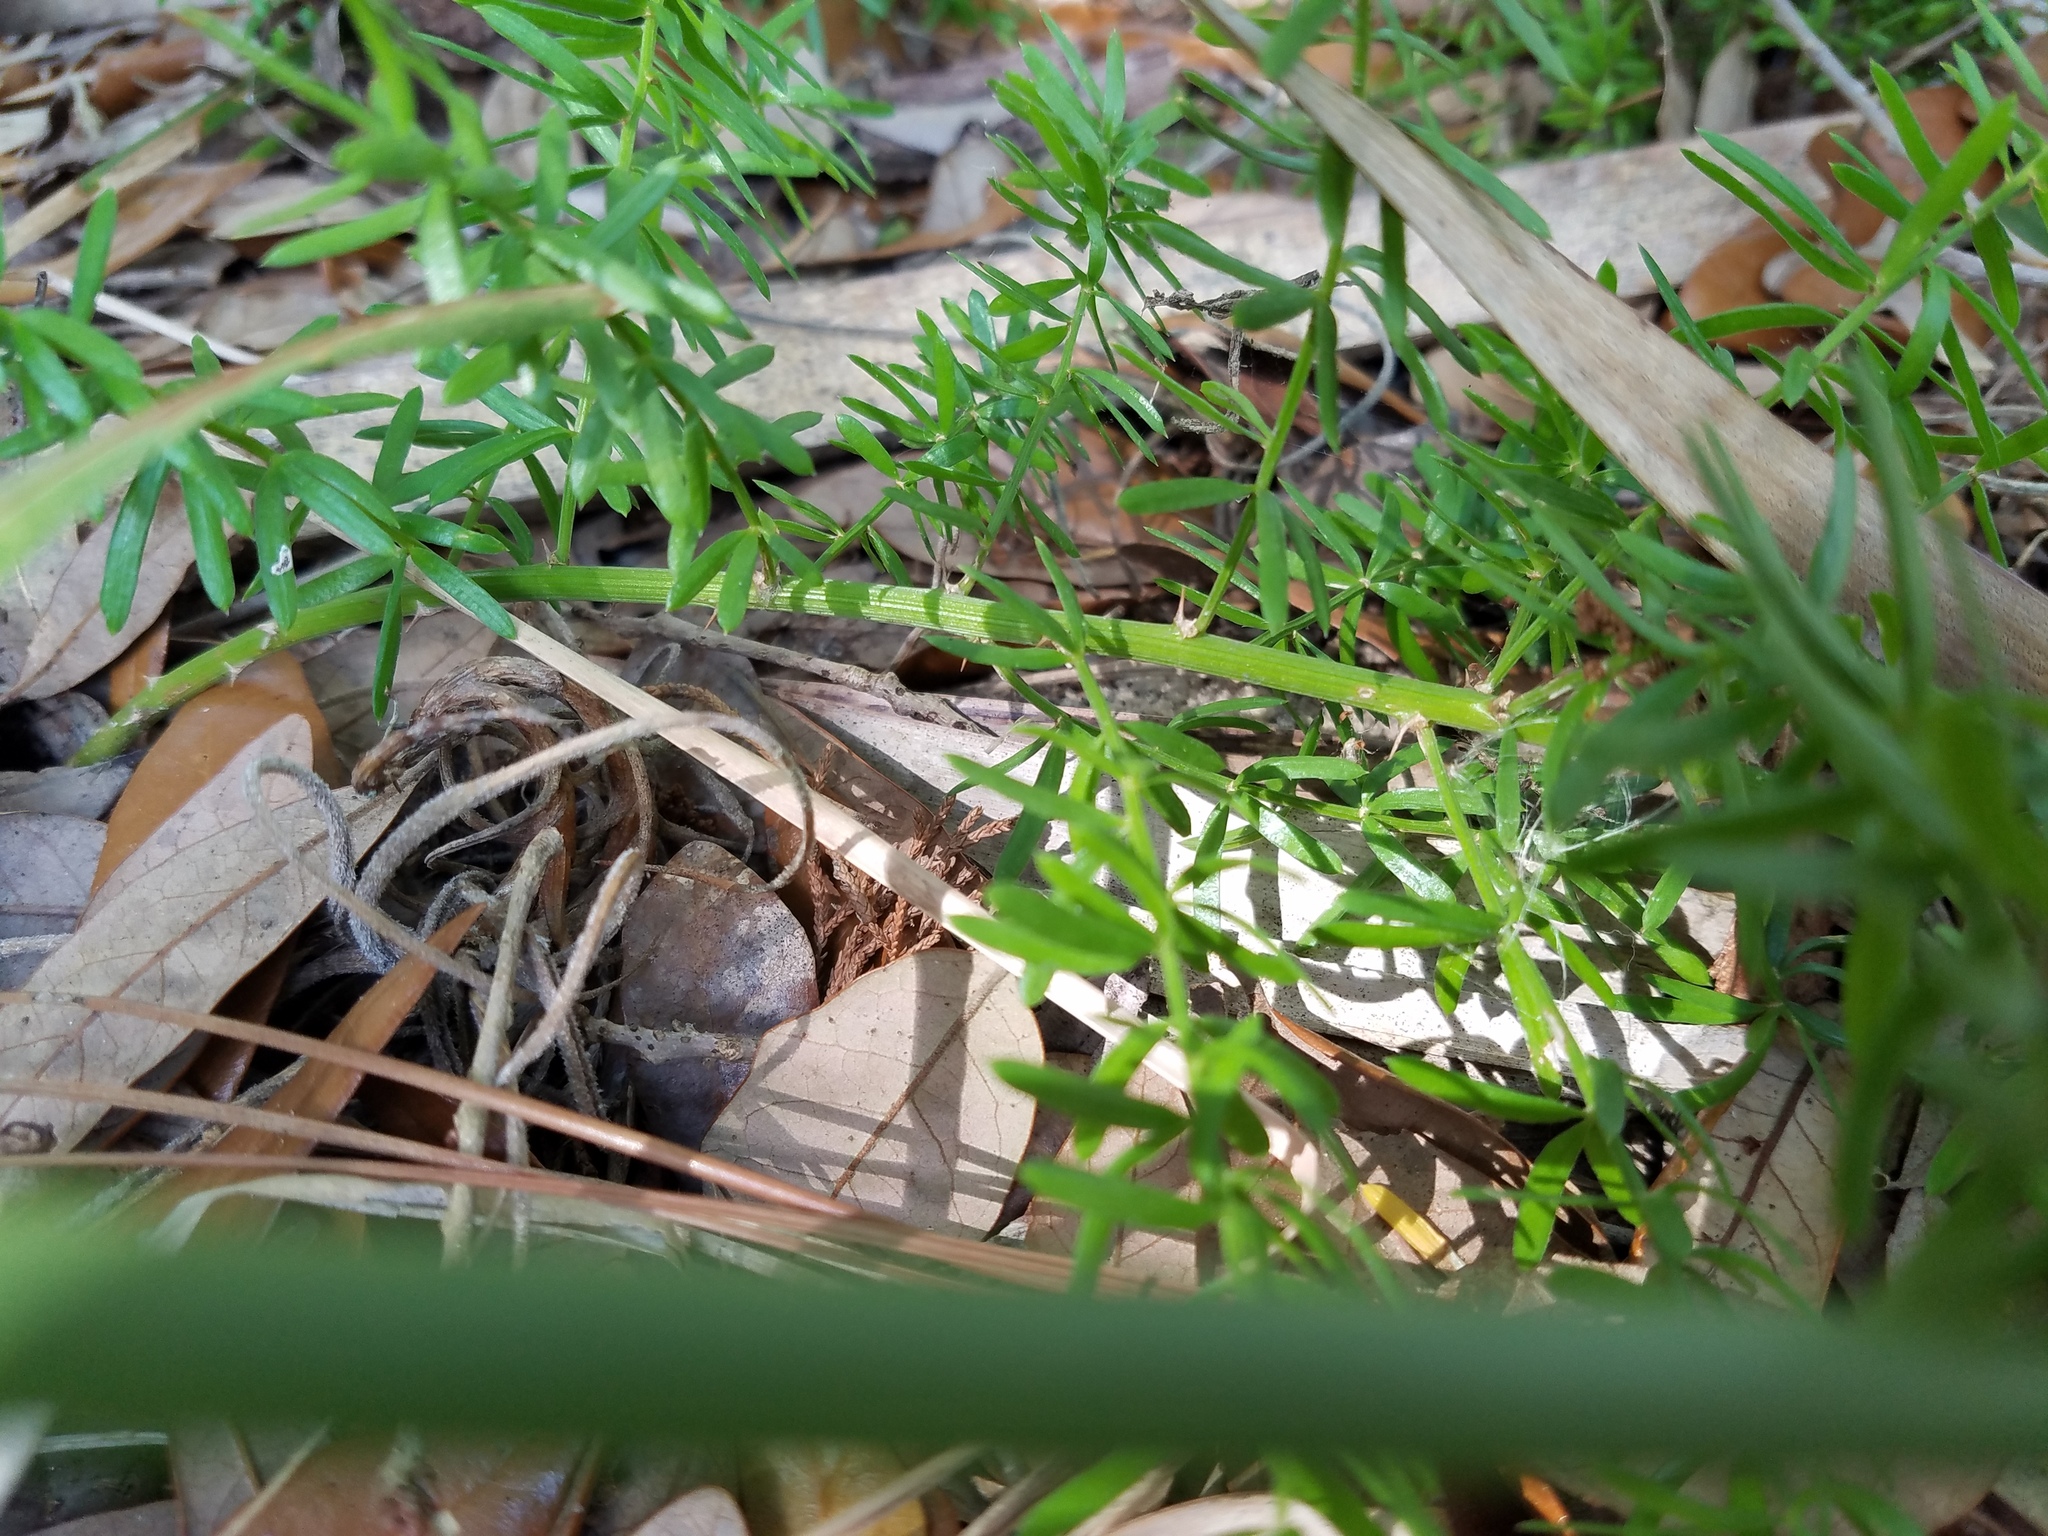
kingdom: Plantae
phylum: Tracheophyta
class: Liliopsida
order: Asparagales
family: Asparagaceae
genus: Asparagus
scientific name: Asparagus aethiopicus
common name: Sprenger's asparagus fern
